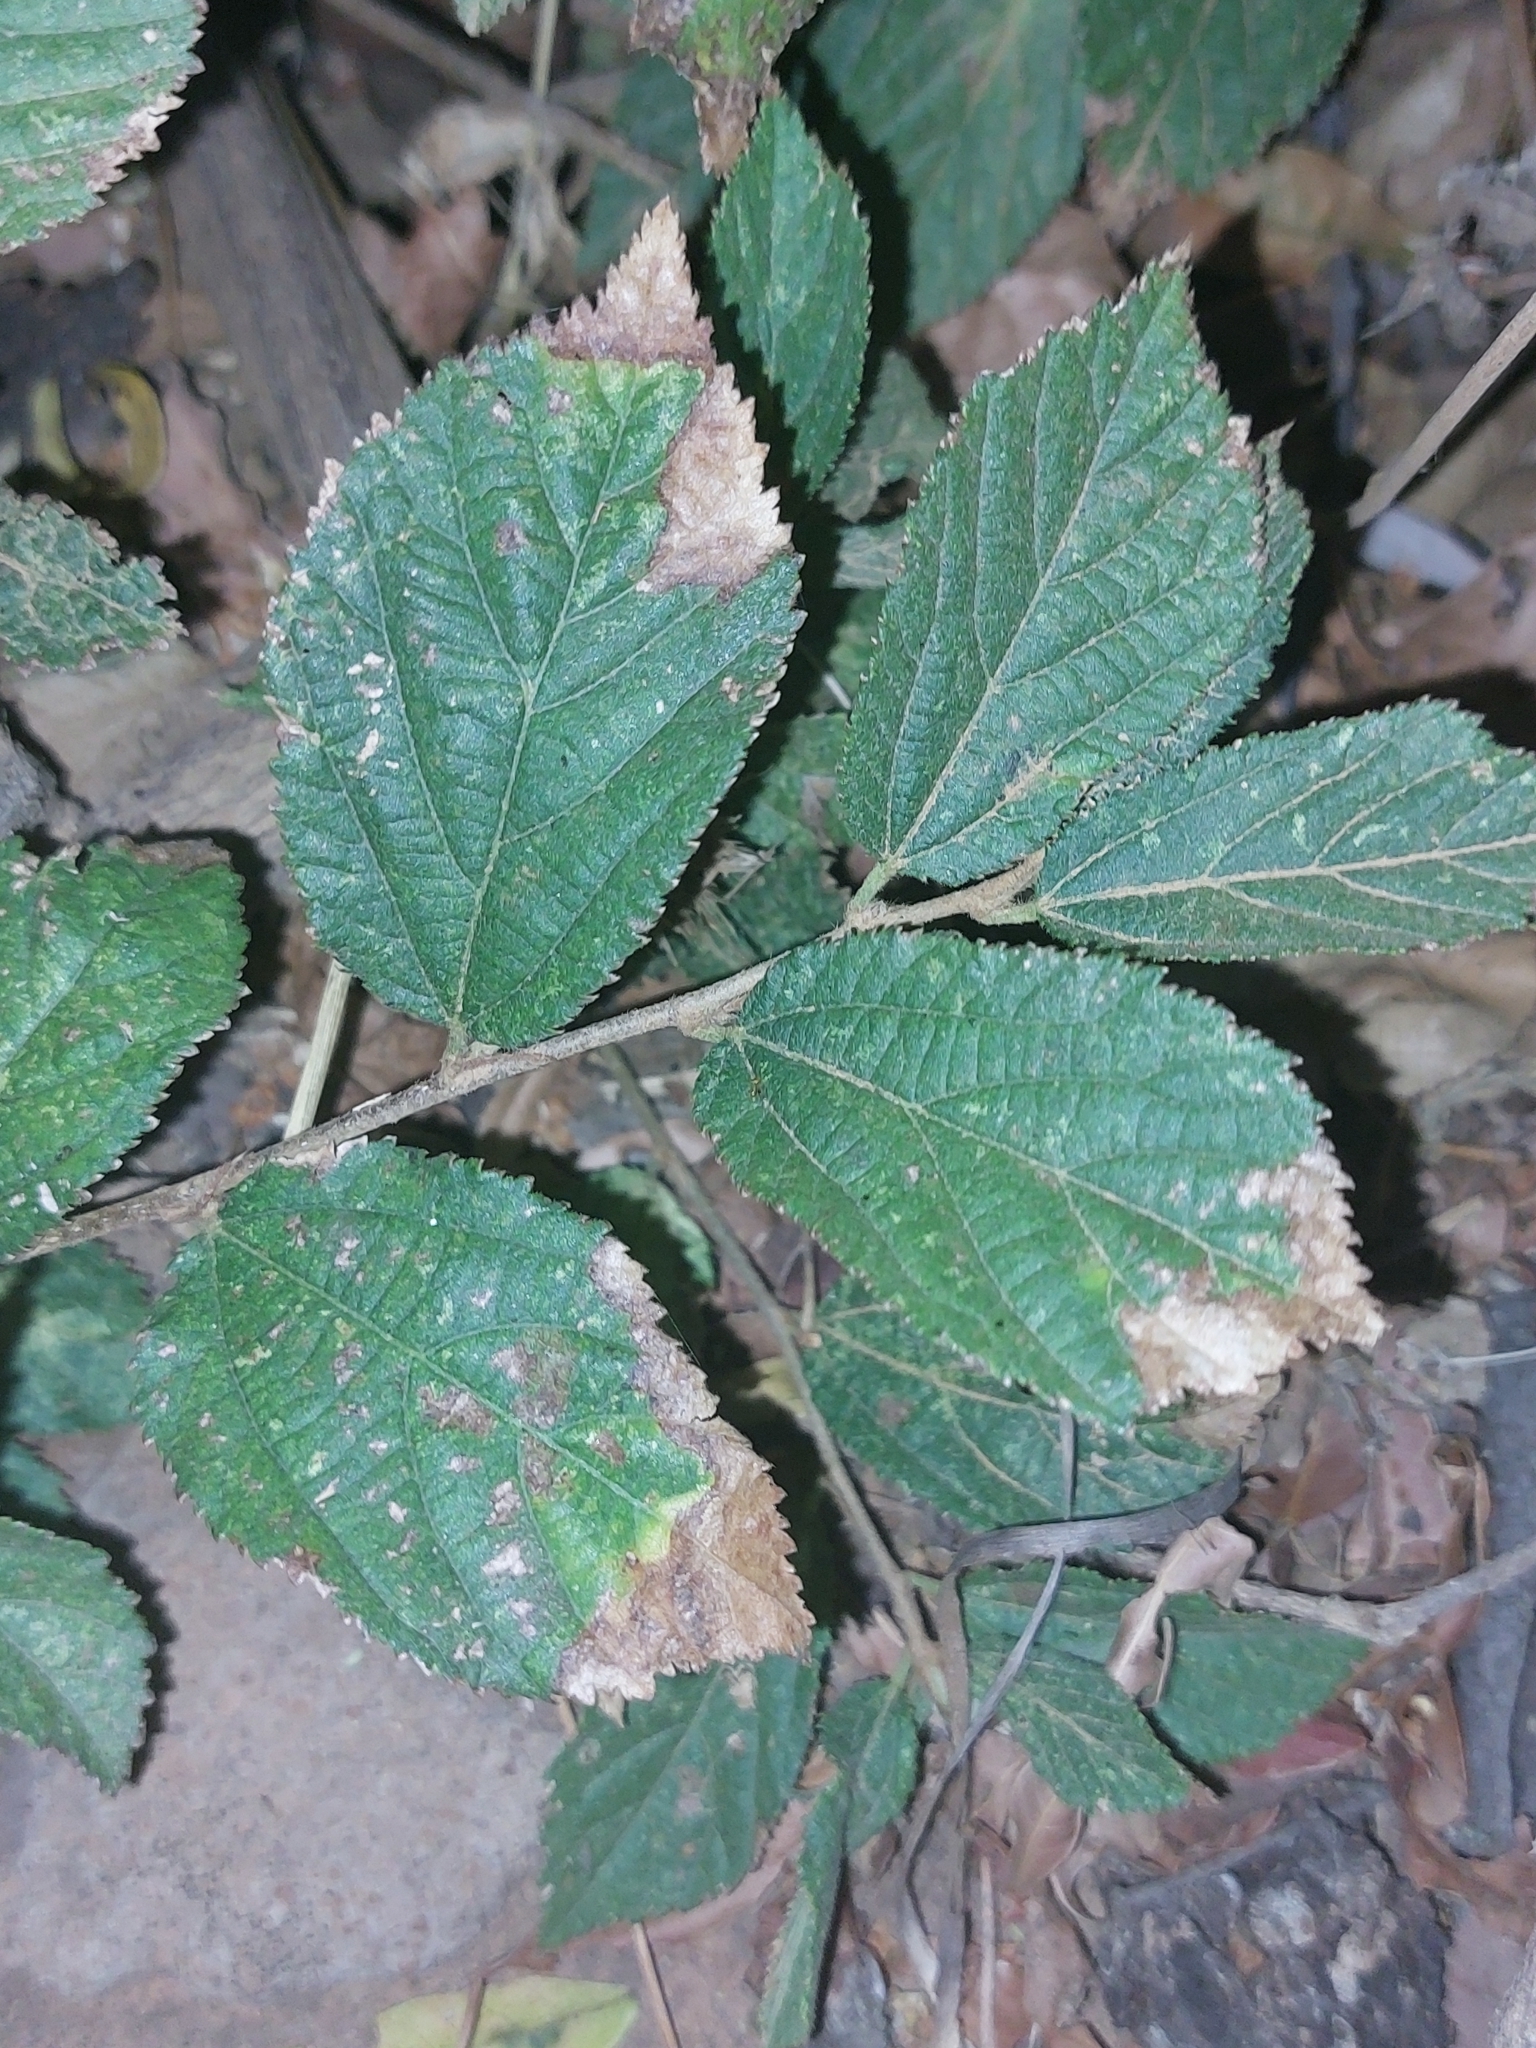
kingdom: Plantae
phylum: Tracheophyta
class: Magnoliopsida
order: Malvales
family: Malvaceae
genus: Grewia
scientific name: Grewia flavescens
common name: Sandpaper raisin
